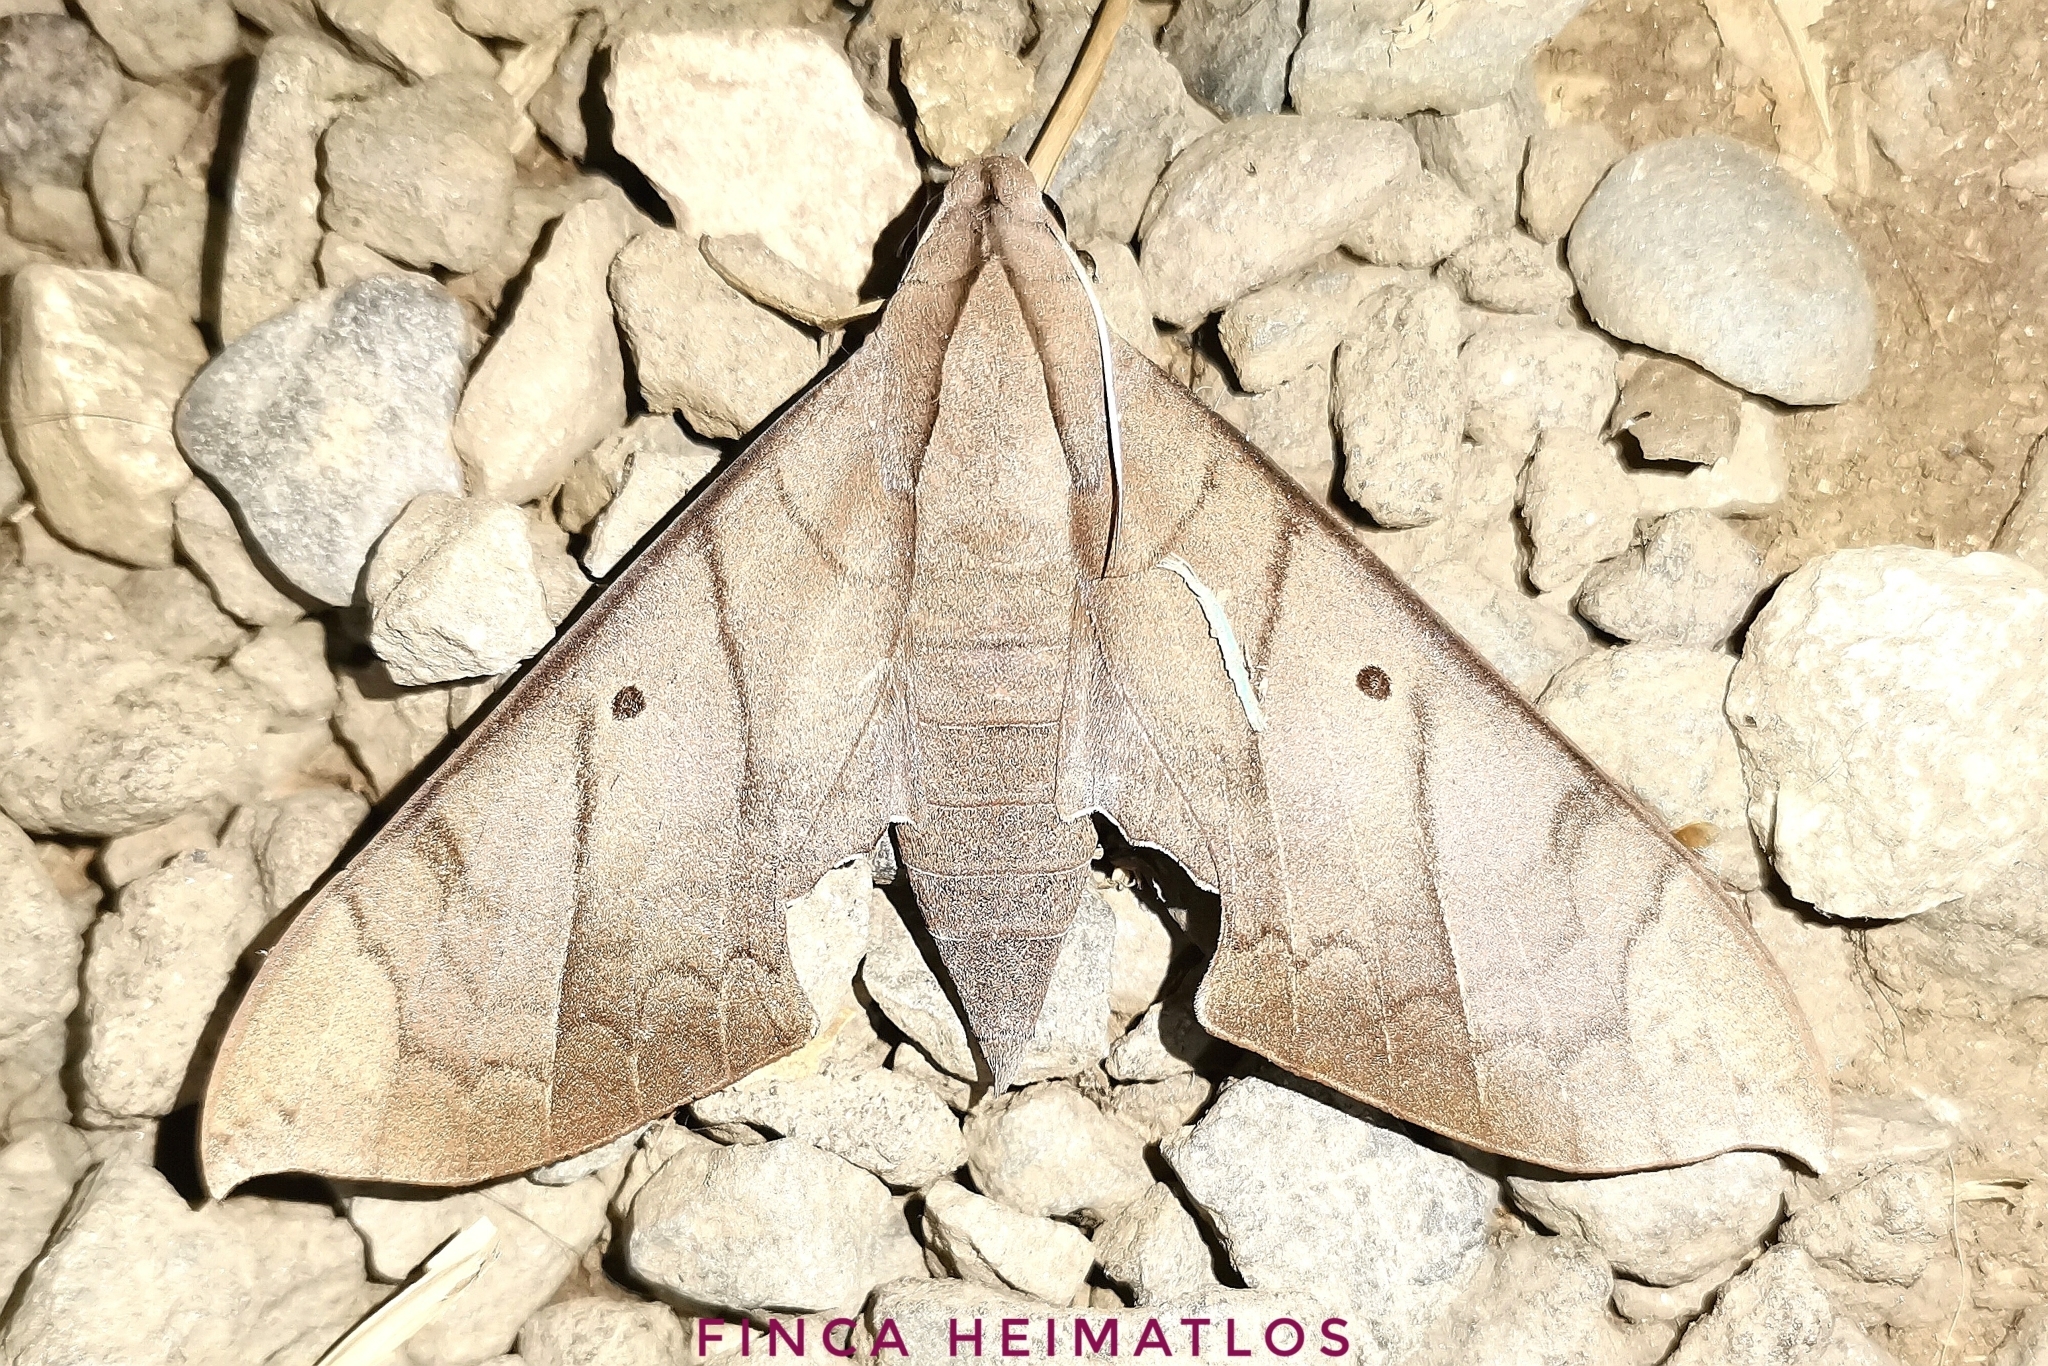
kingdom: Animalia
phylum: Arthropoda
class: Insecta
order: Lepidoptera
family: Sphingidae
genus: Pachylia
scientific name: Pachylia darceta
